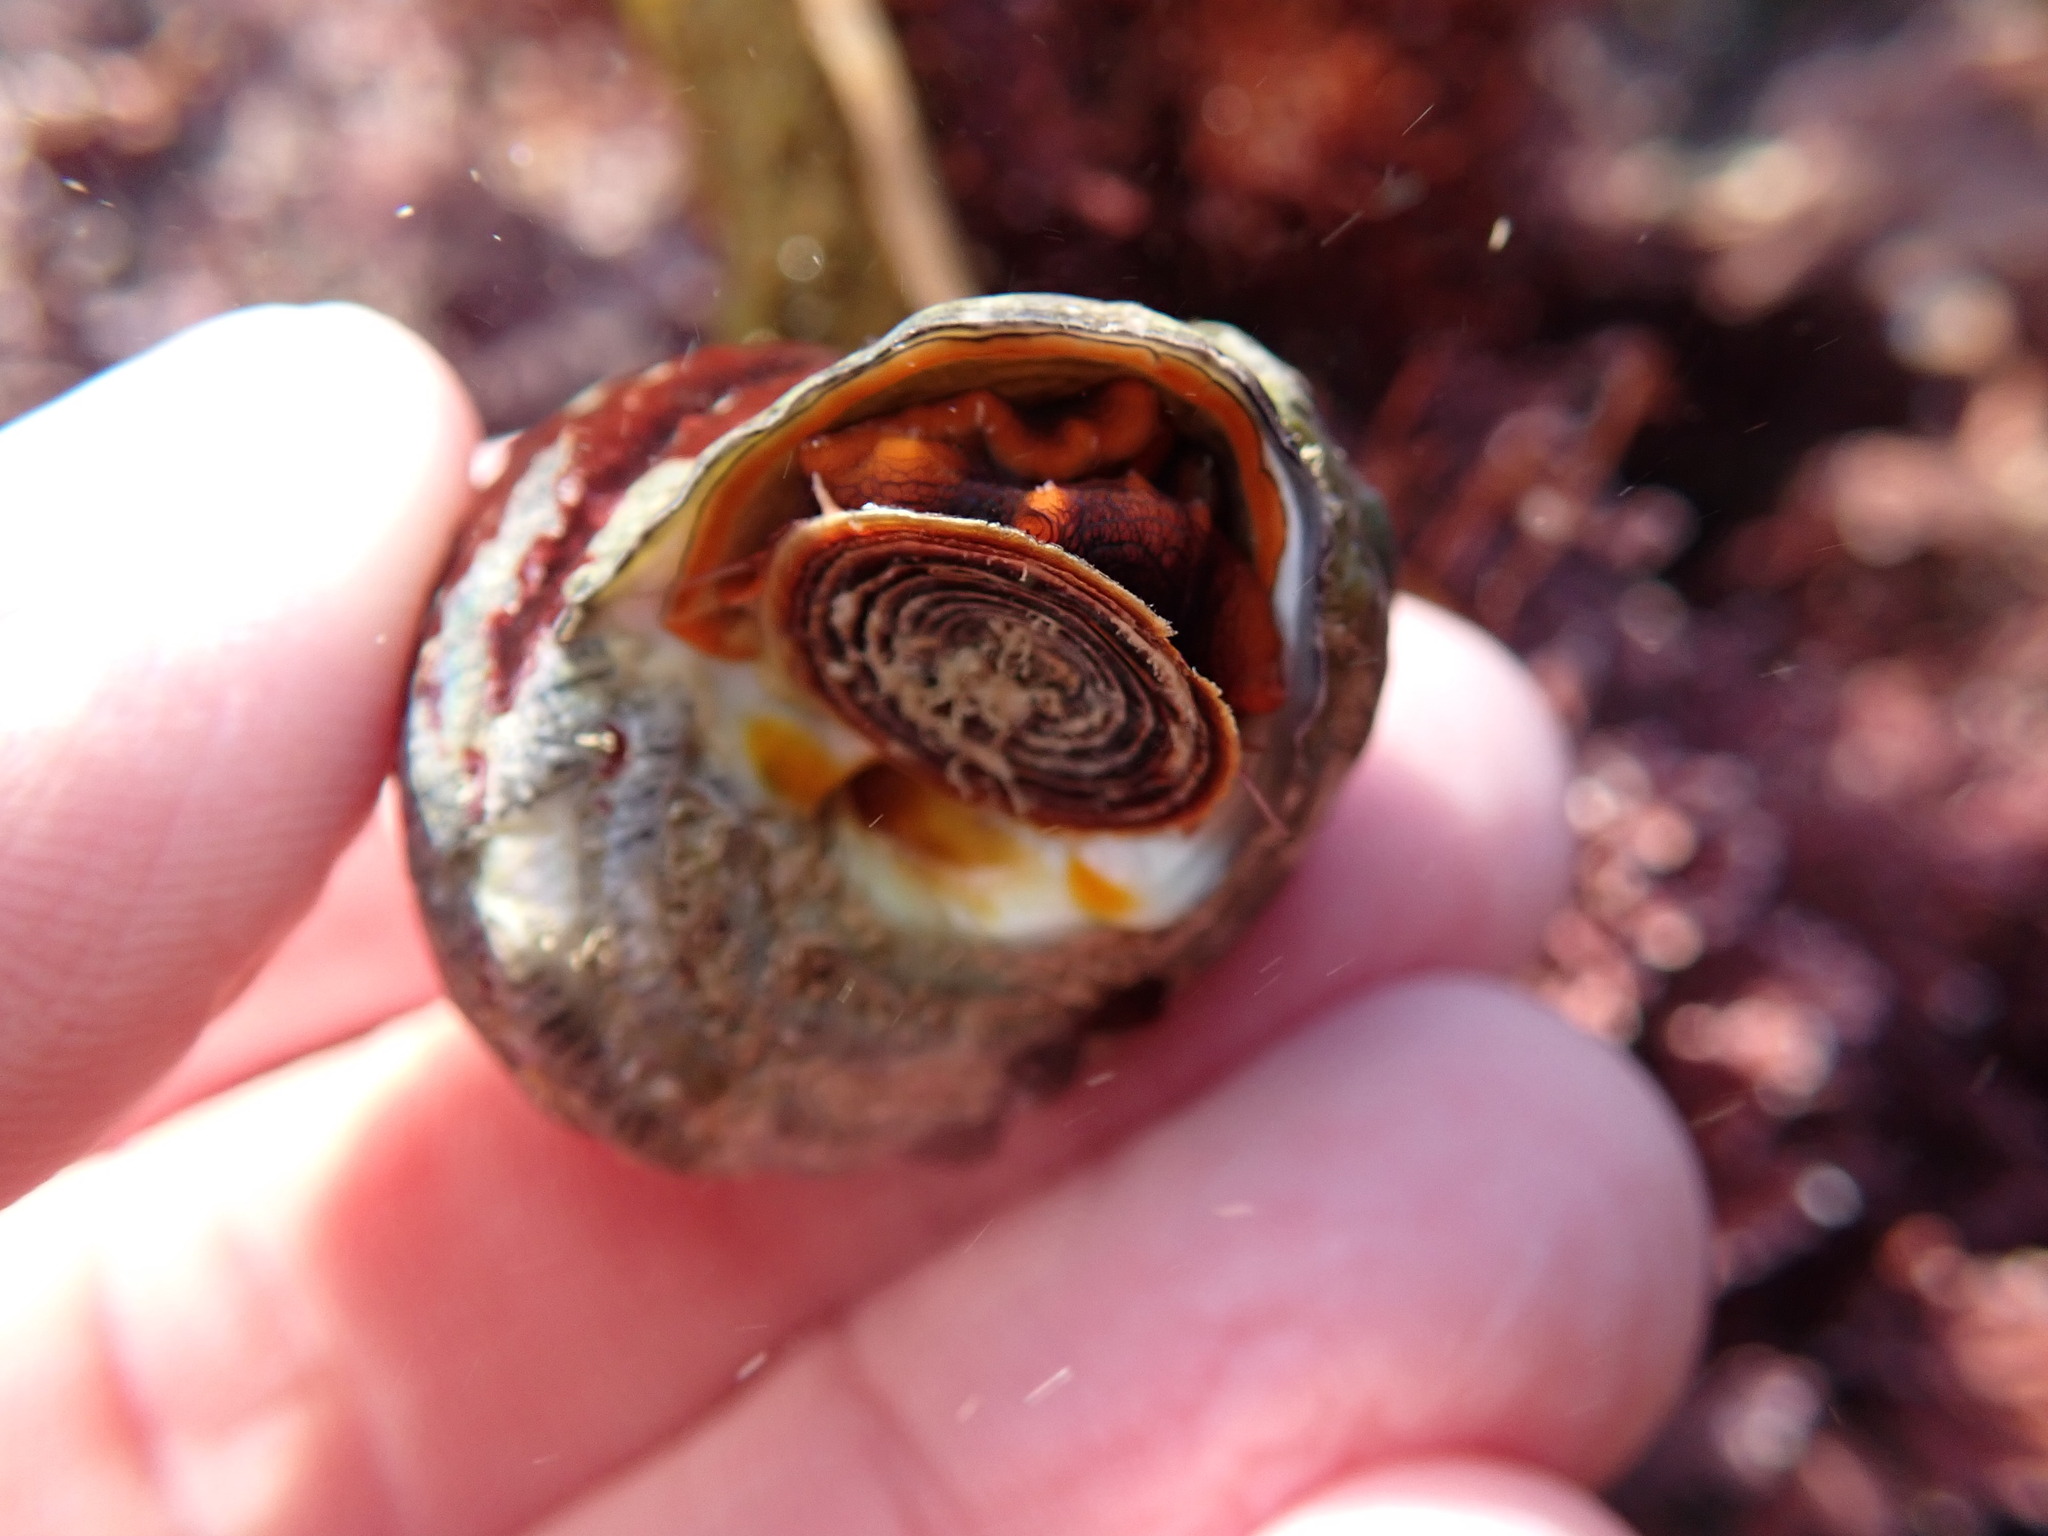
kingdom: Animalia
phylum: Mollusca
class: Gastropoda
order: Trochida
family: Tegulidae
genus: Tegula
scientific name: Tegula aureotincta
